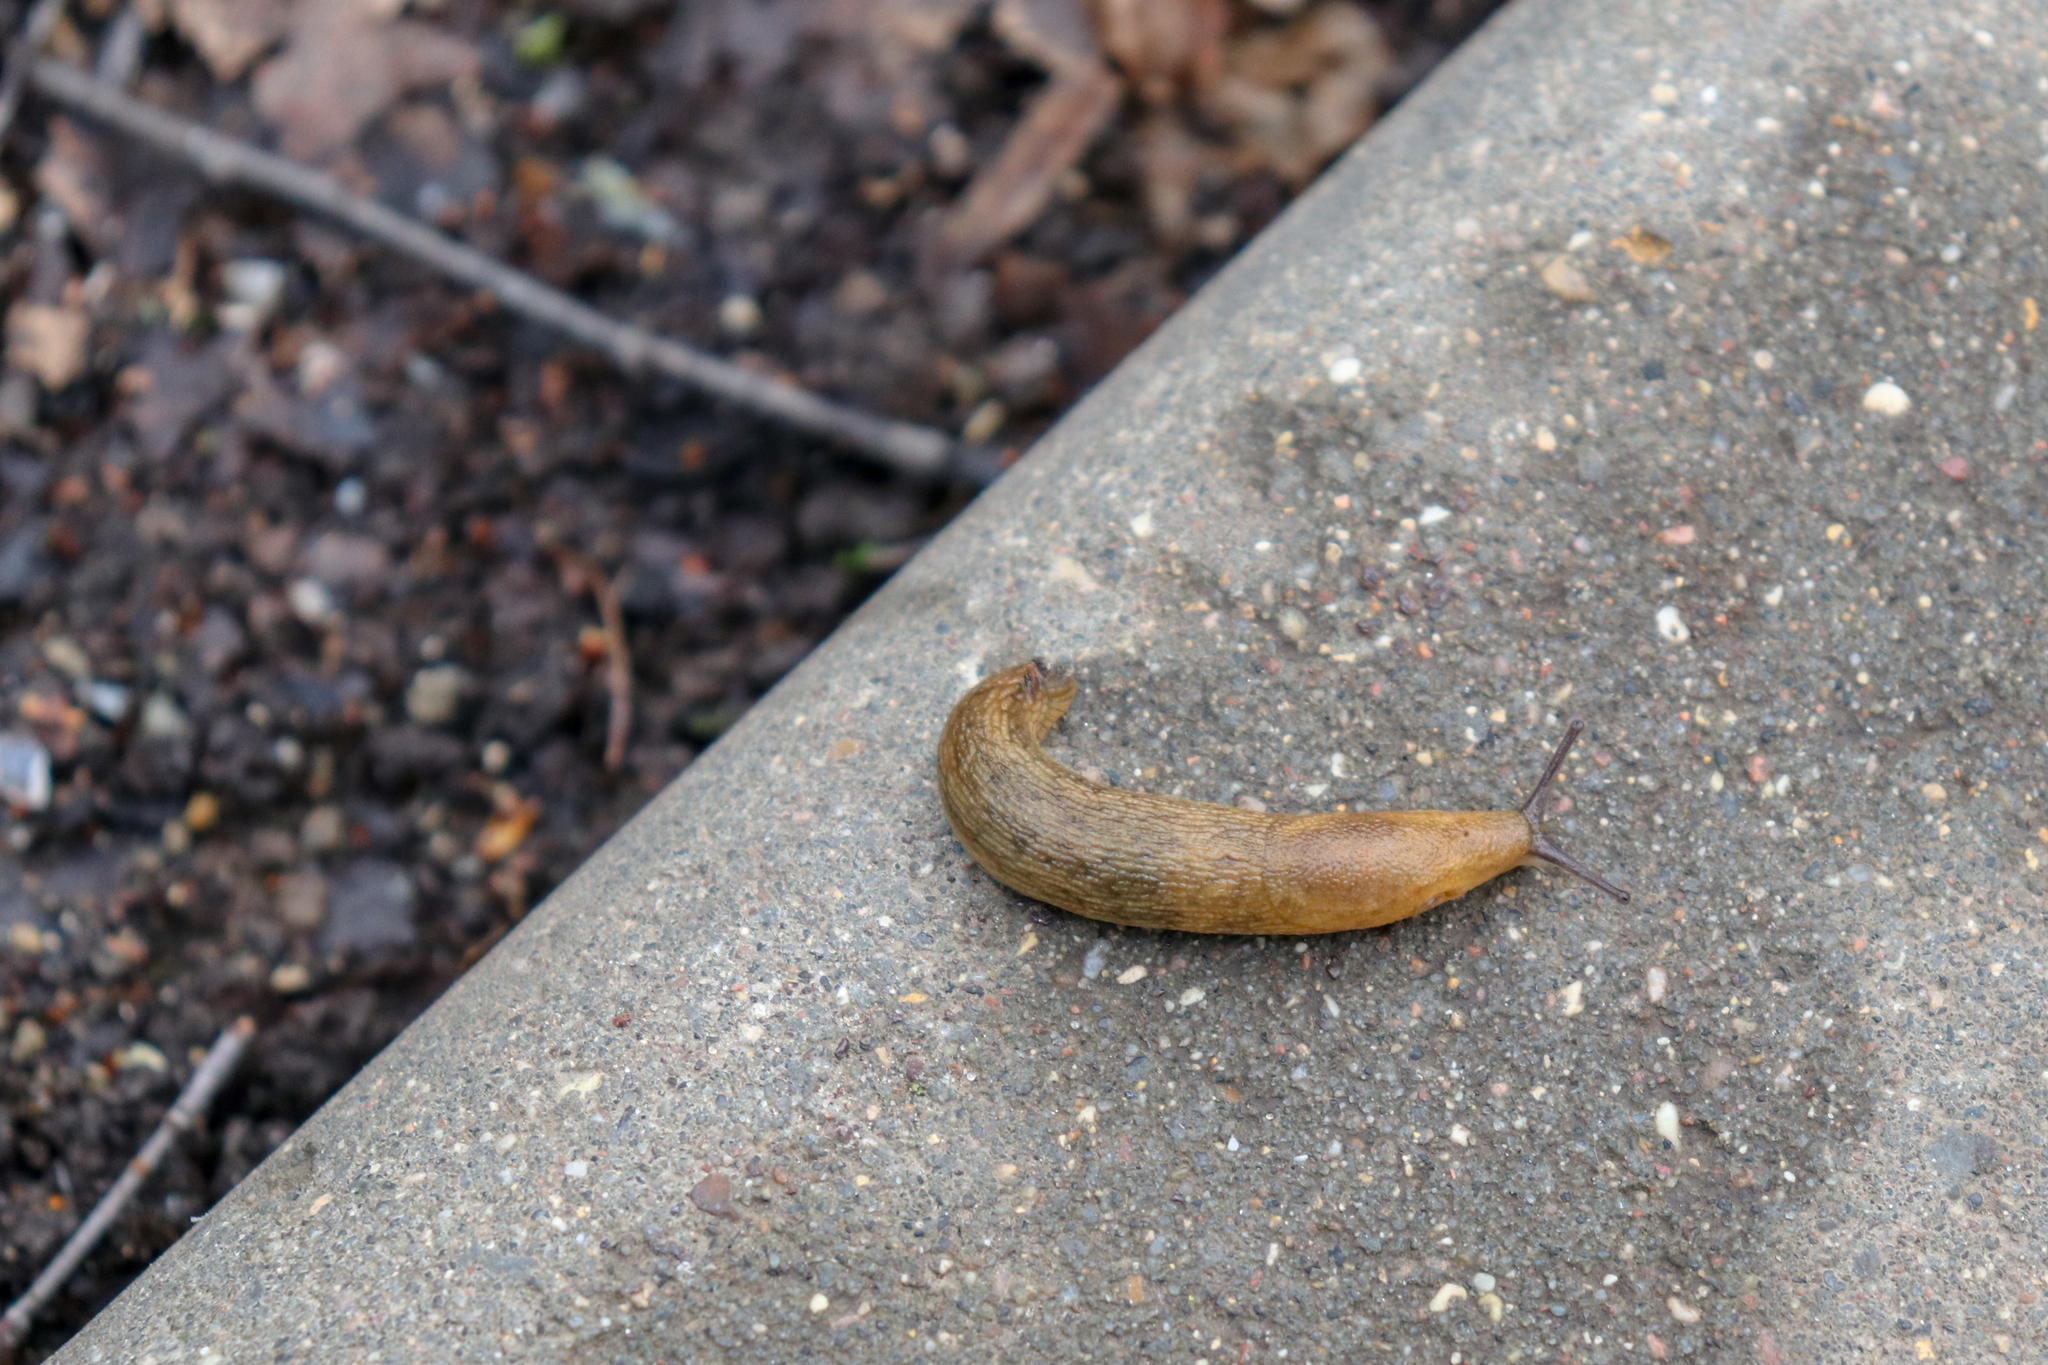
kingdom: Animalia
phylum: Mollusca
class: Gastropoda
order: Stylommatophora
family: Arionidae
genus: Arion
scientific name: Arion fuscus
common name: Northern dusky slug
